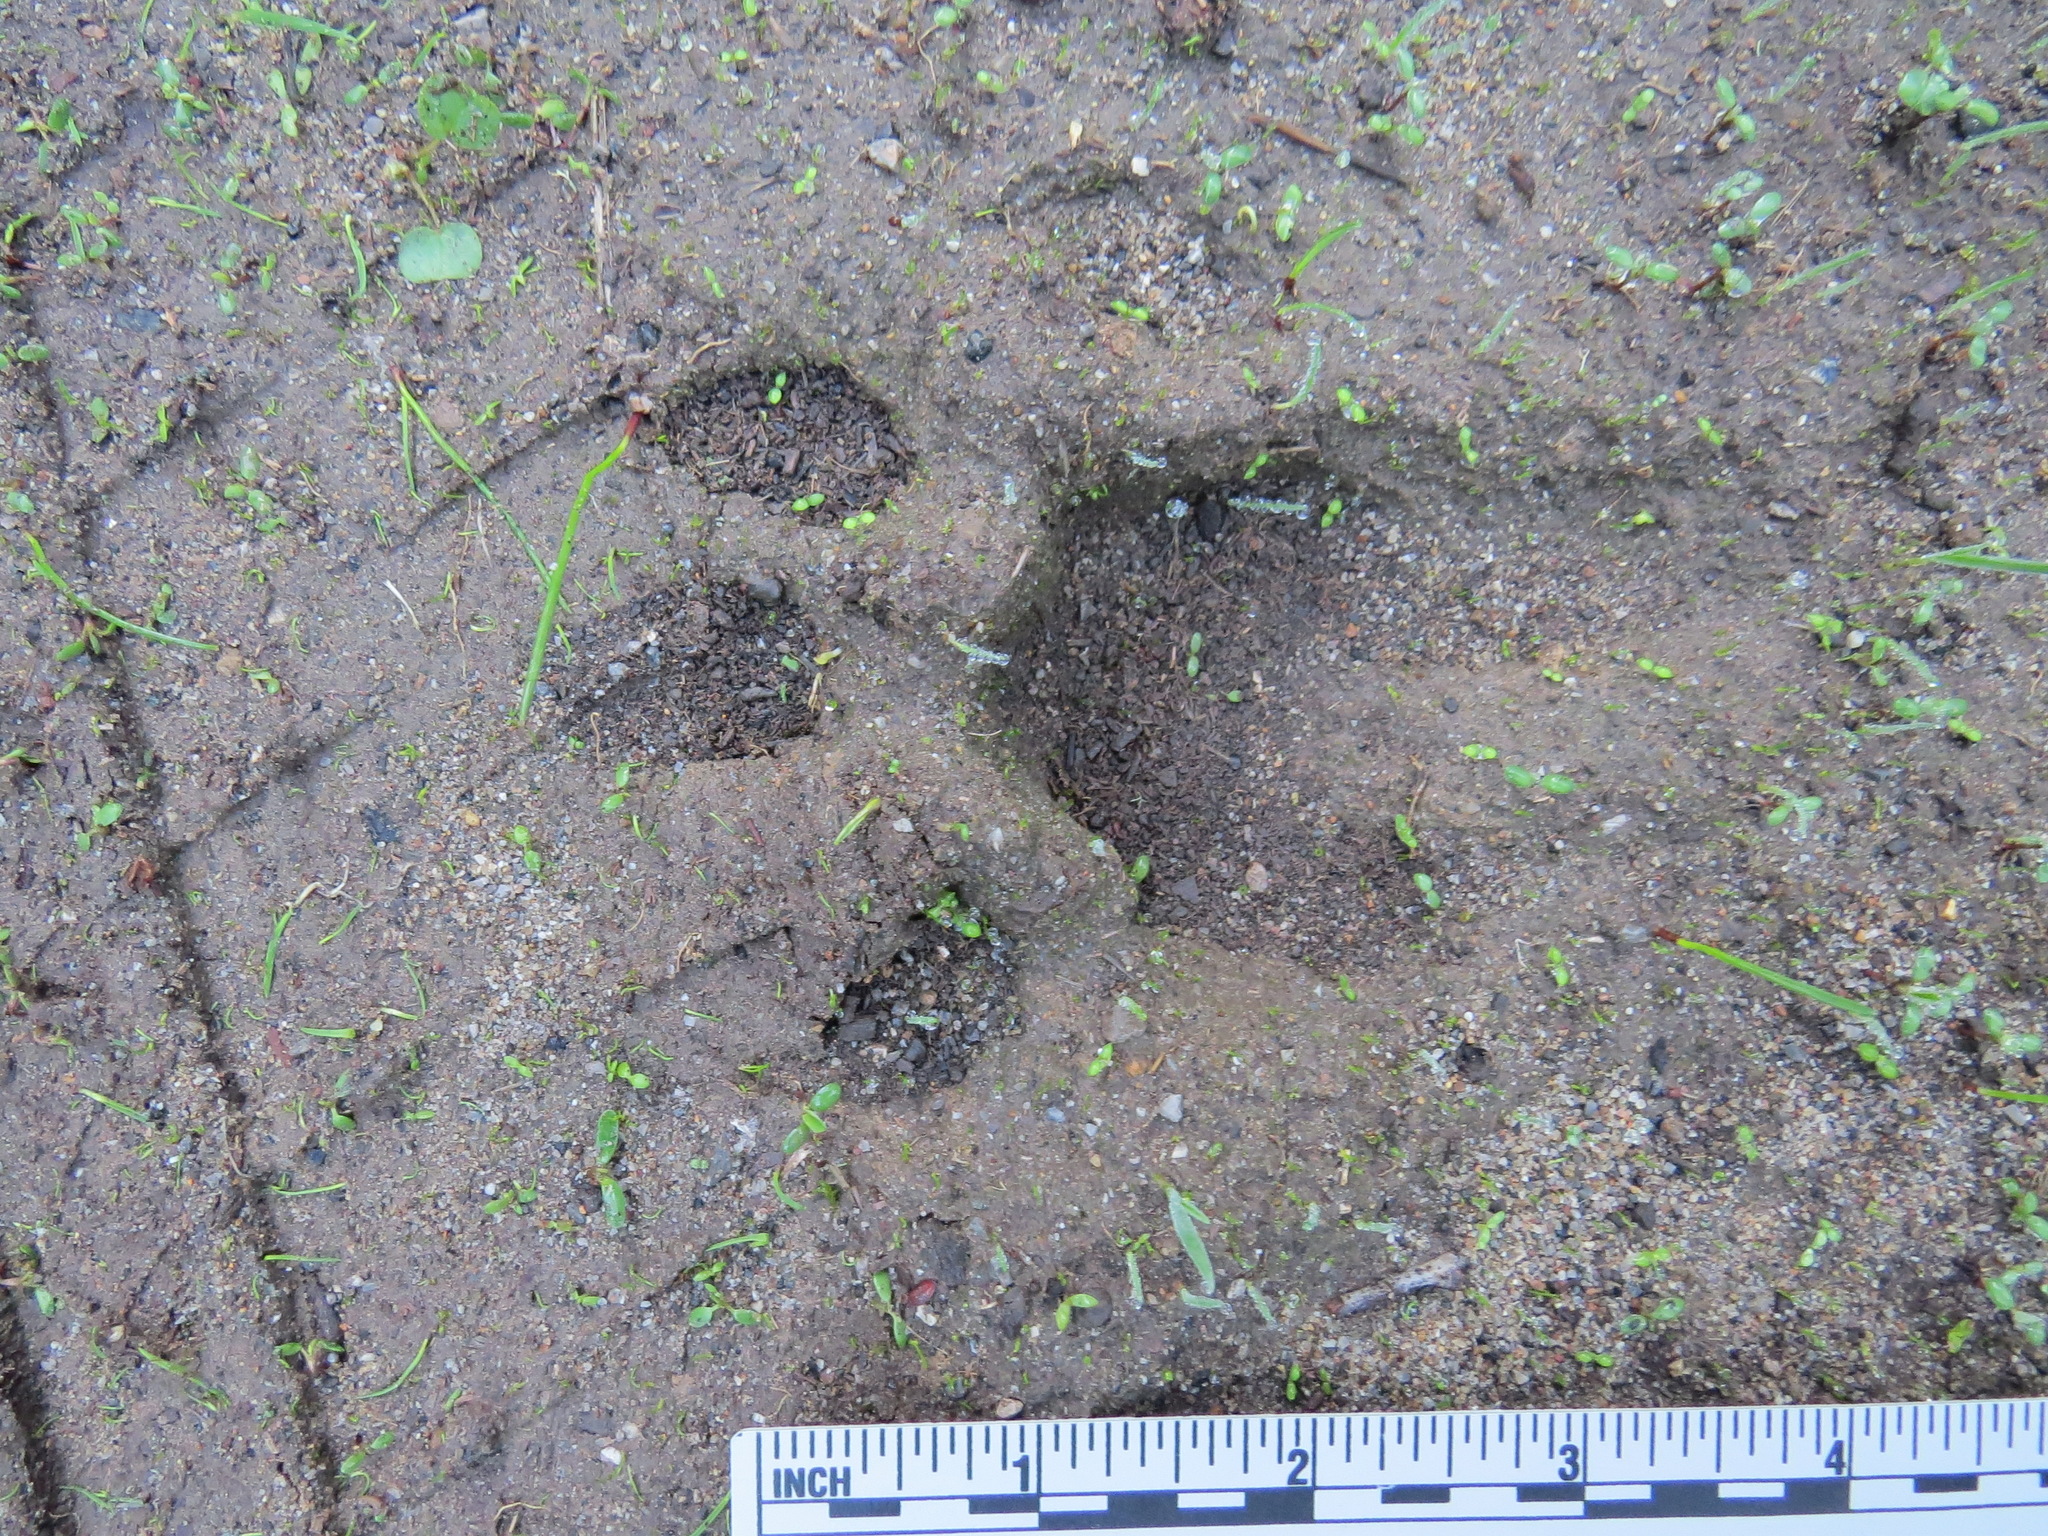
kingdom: Animalia
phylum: Chordata
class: Mammalia
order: Carnivora
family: Felidae
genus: Puma
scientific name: Puma concolor
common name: Puma
